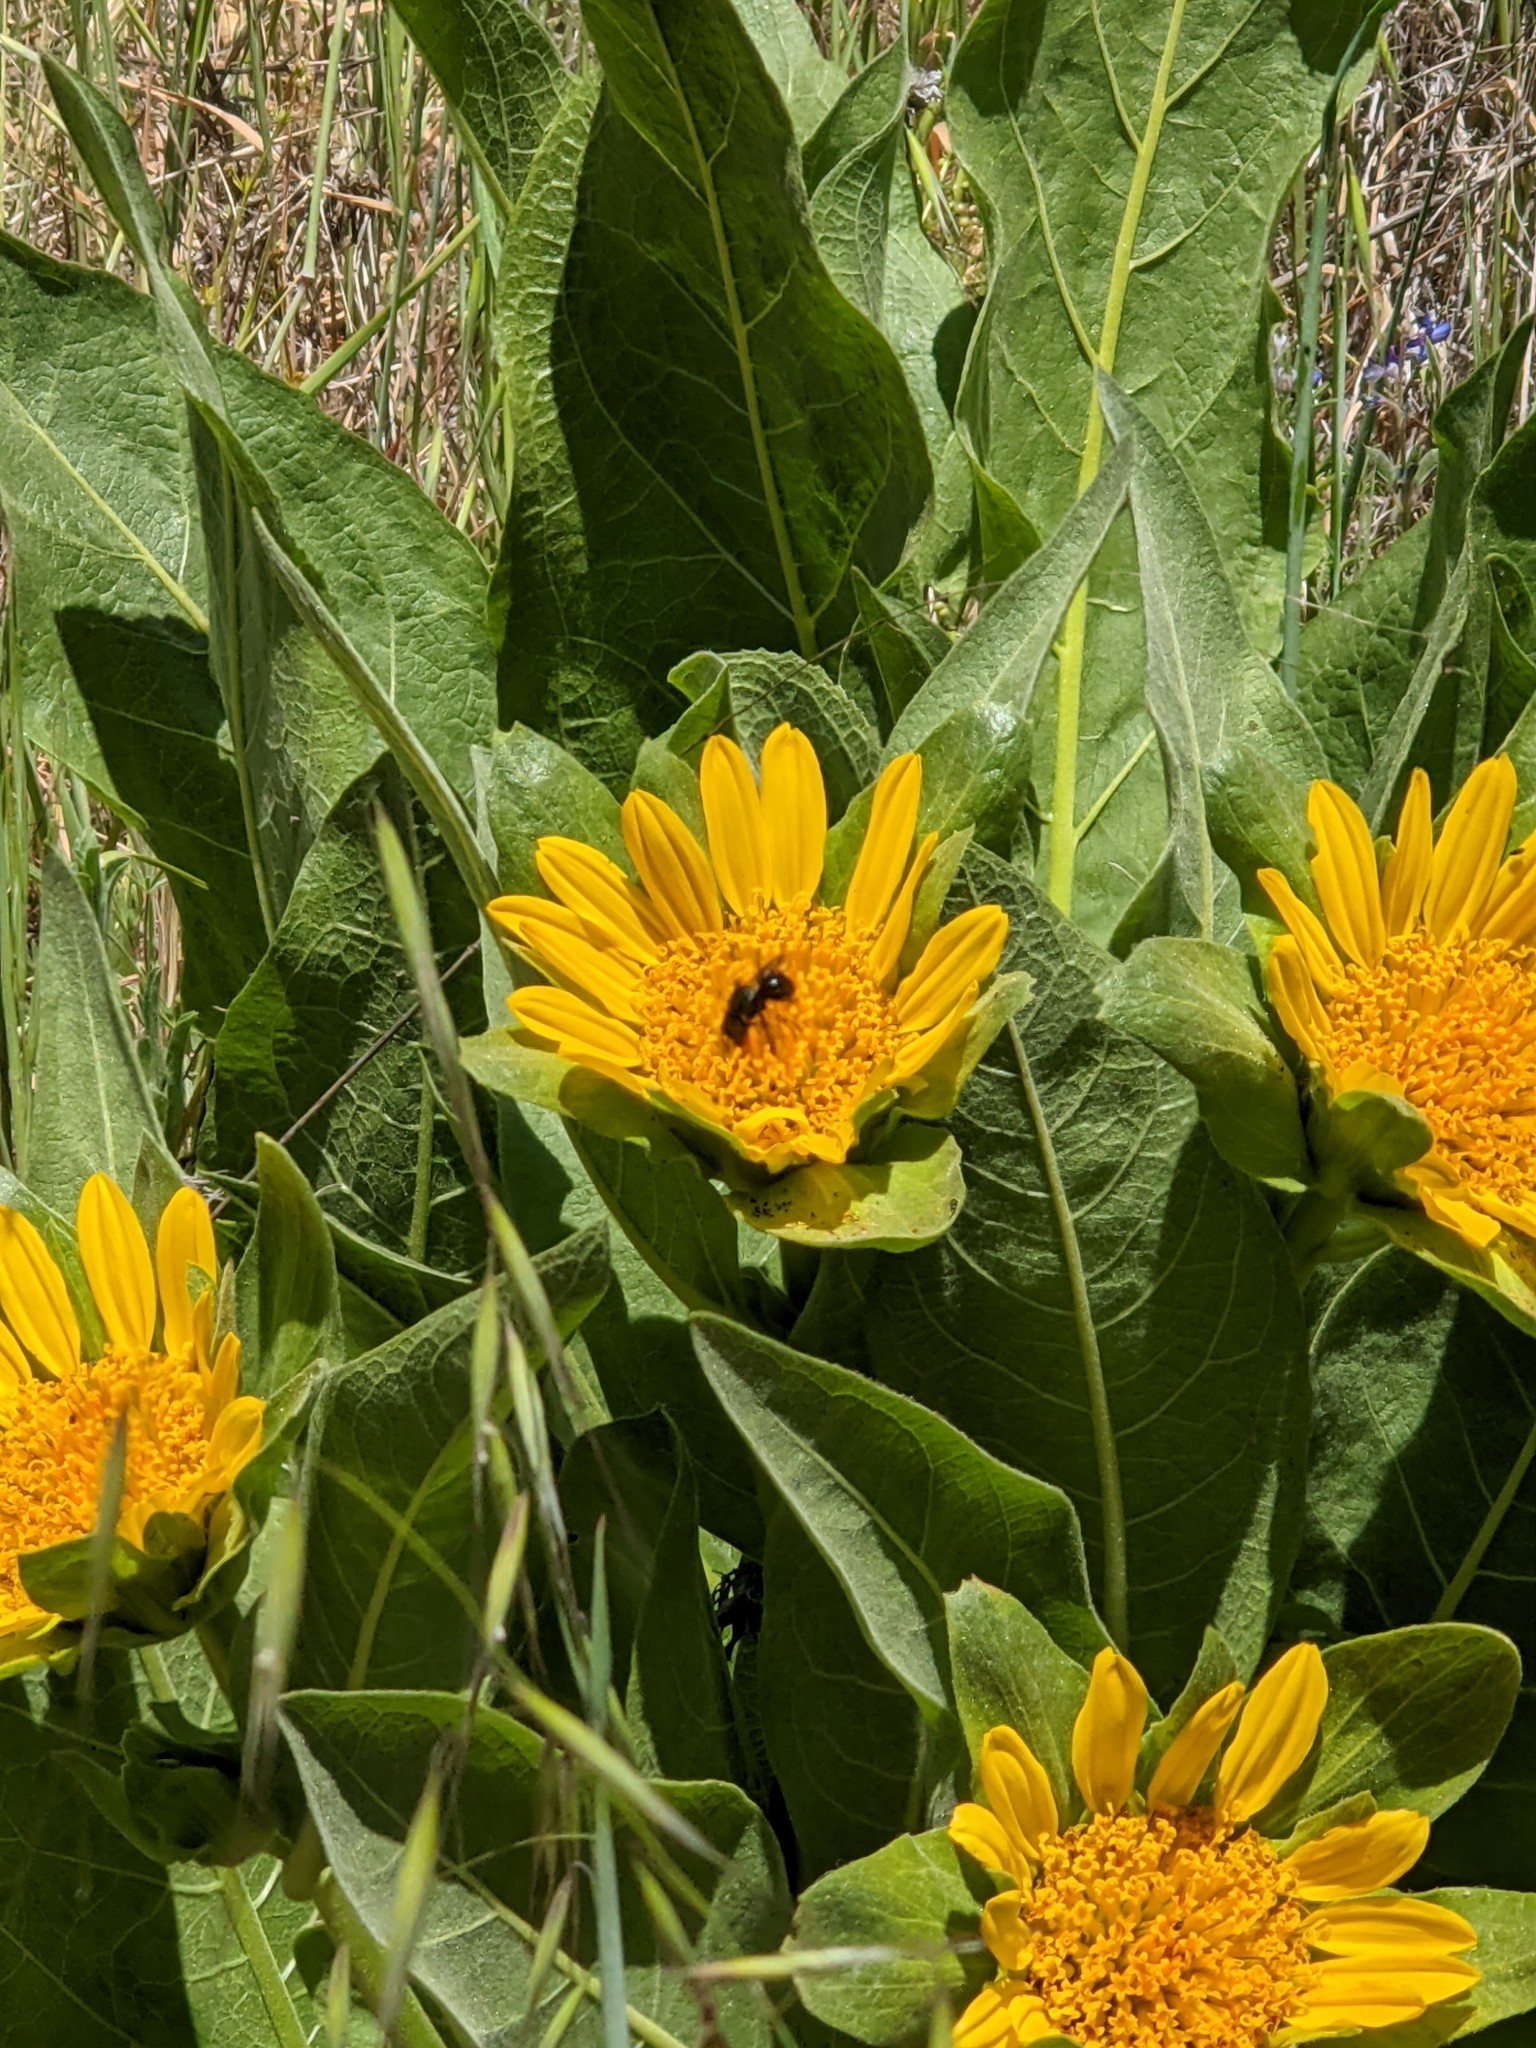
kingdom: Plantae
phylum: Tracheophyta
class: Magnoliopsida
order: Asterales
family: Asteraceae
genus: Wyethia
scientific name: Wyethia glabra
